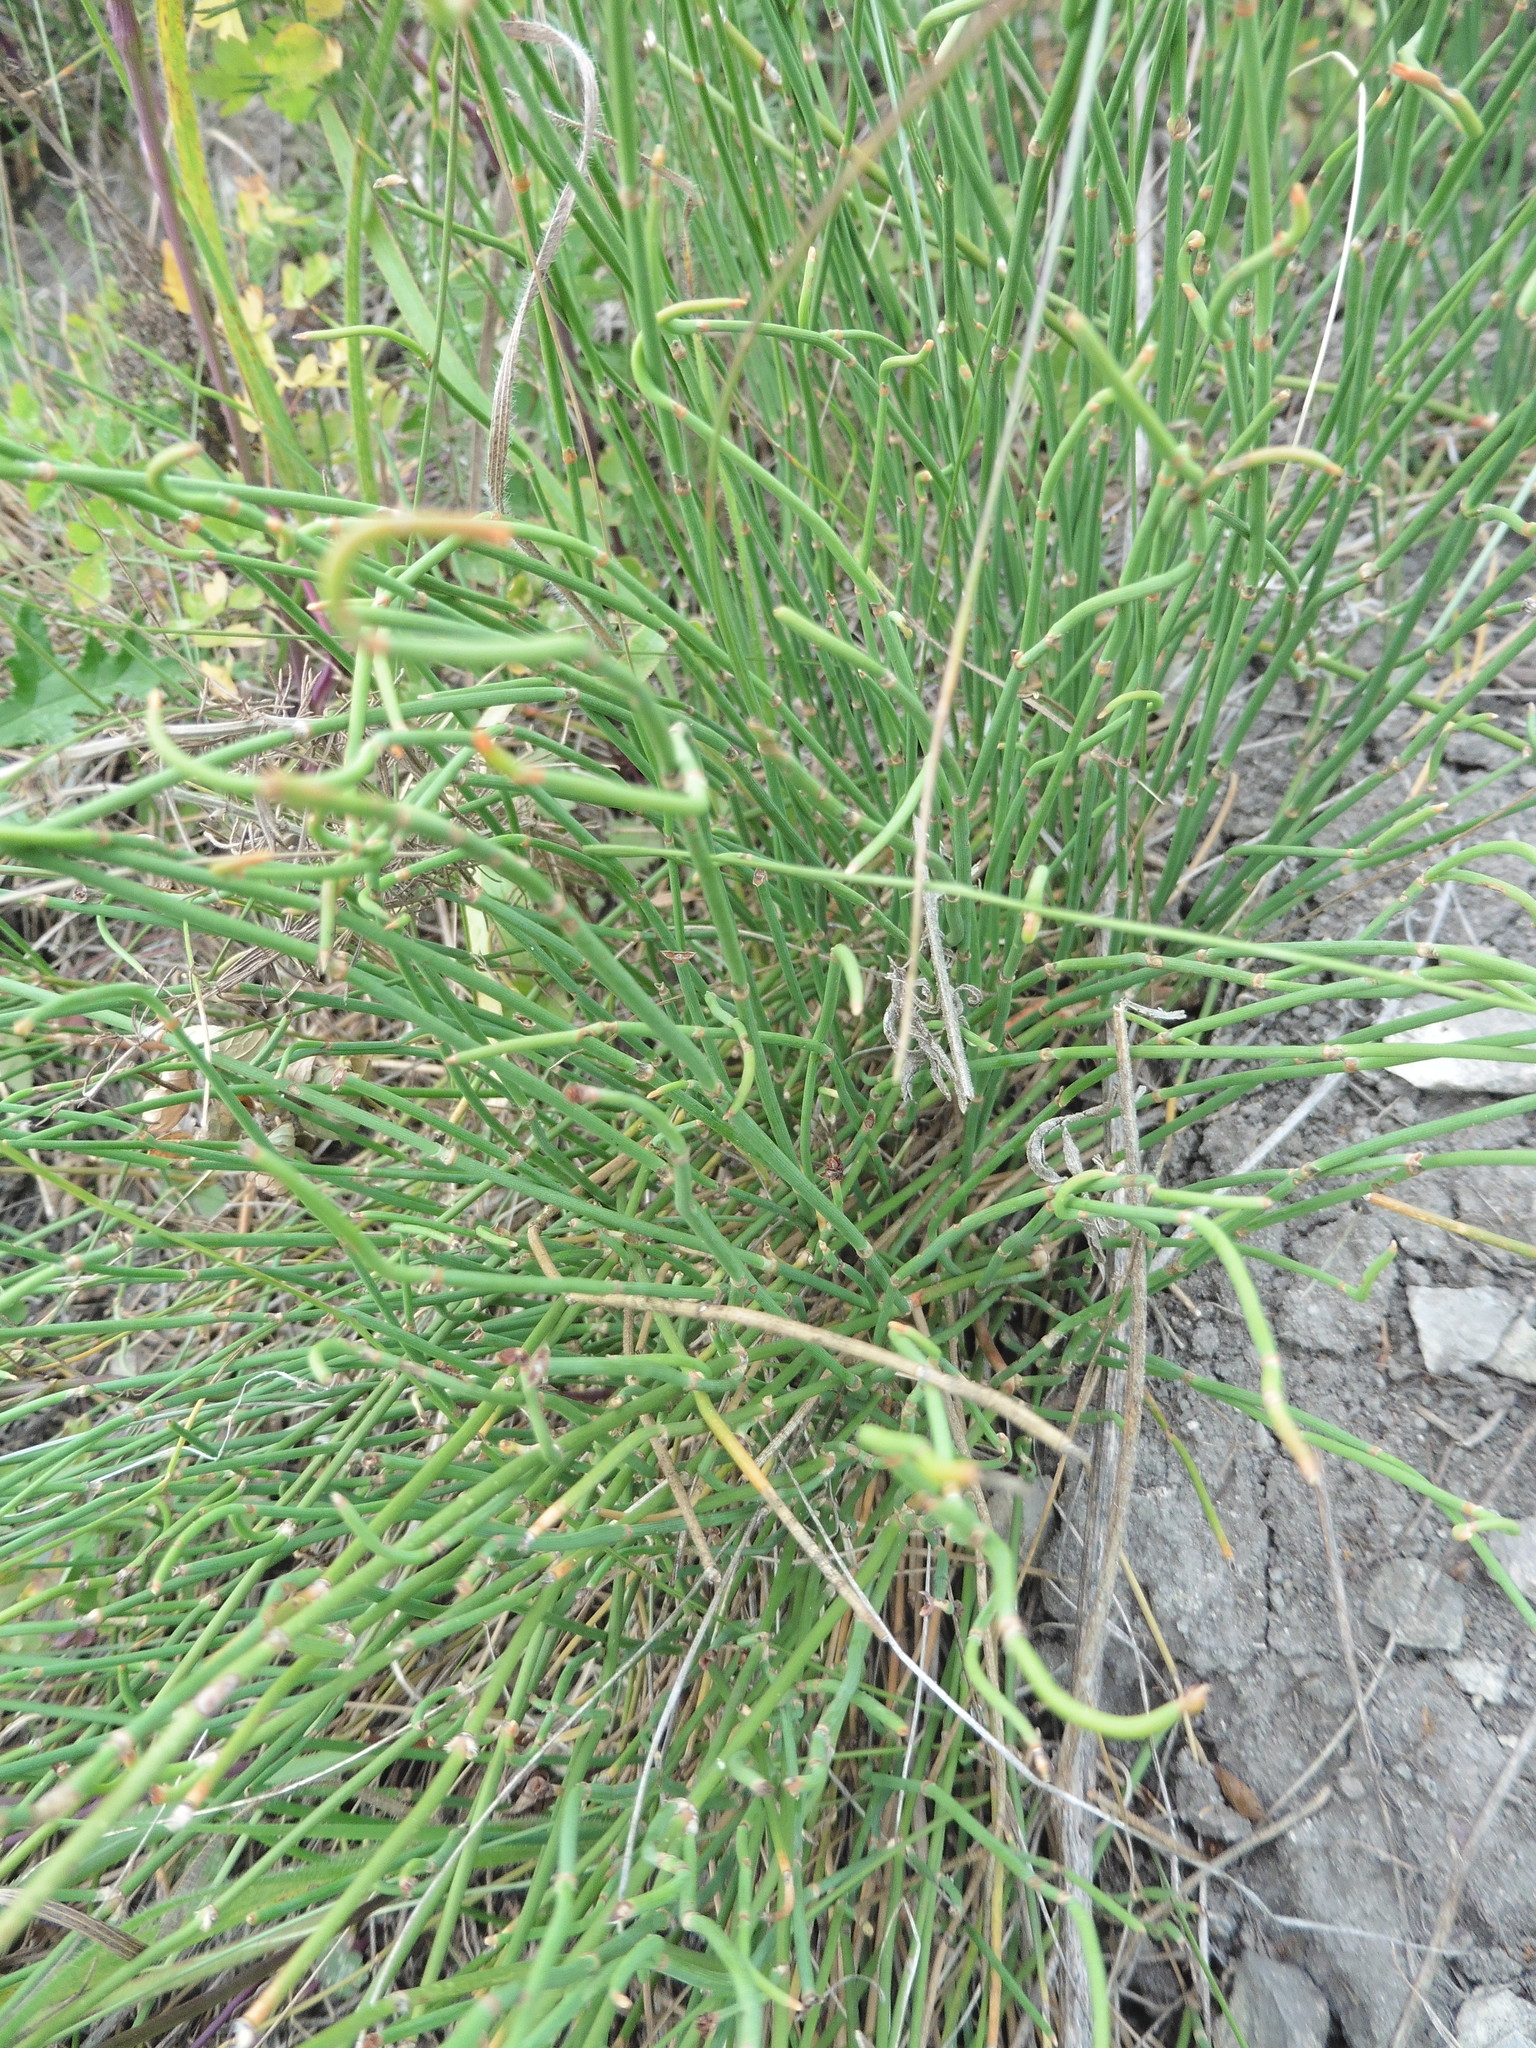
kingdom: Plantae
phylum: Tracheophyta
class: Gnetopsida
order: Ephedrales
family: Ephedraceae
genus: Ephedra
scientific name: Ephedra distachya
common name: Sea grape
